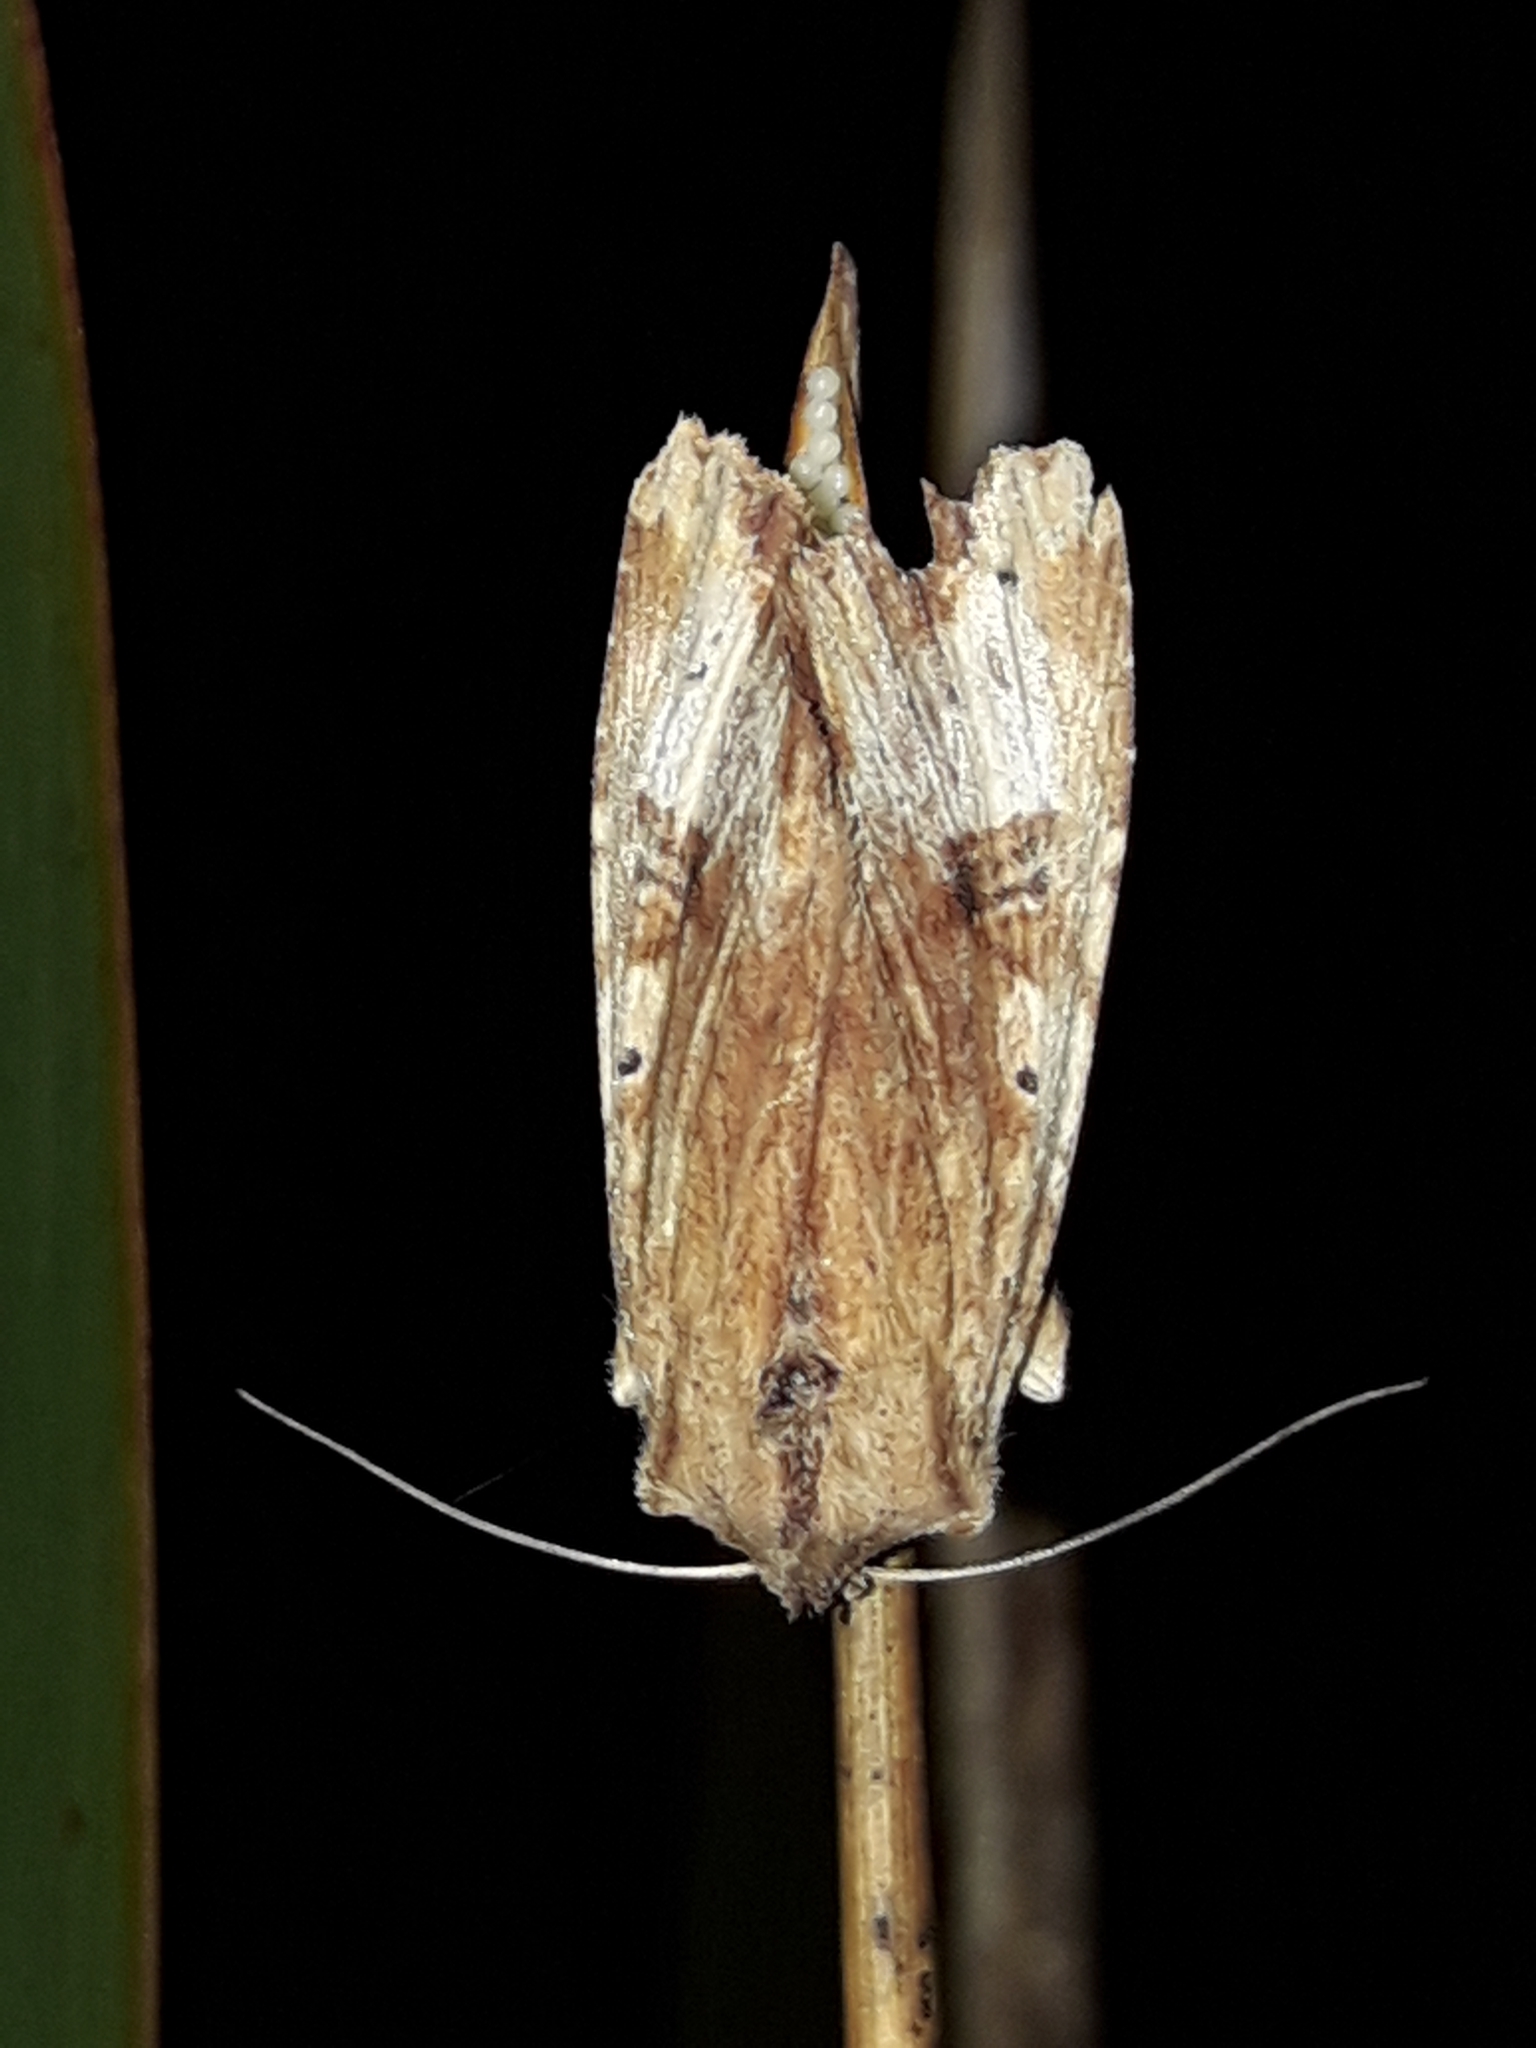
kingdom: Animalia
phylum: Arthropoda
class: Insecta
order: Lepidoptera
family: Noctuidae
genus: Ichneutica
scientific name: Ichneutica
